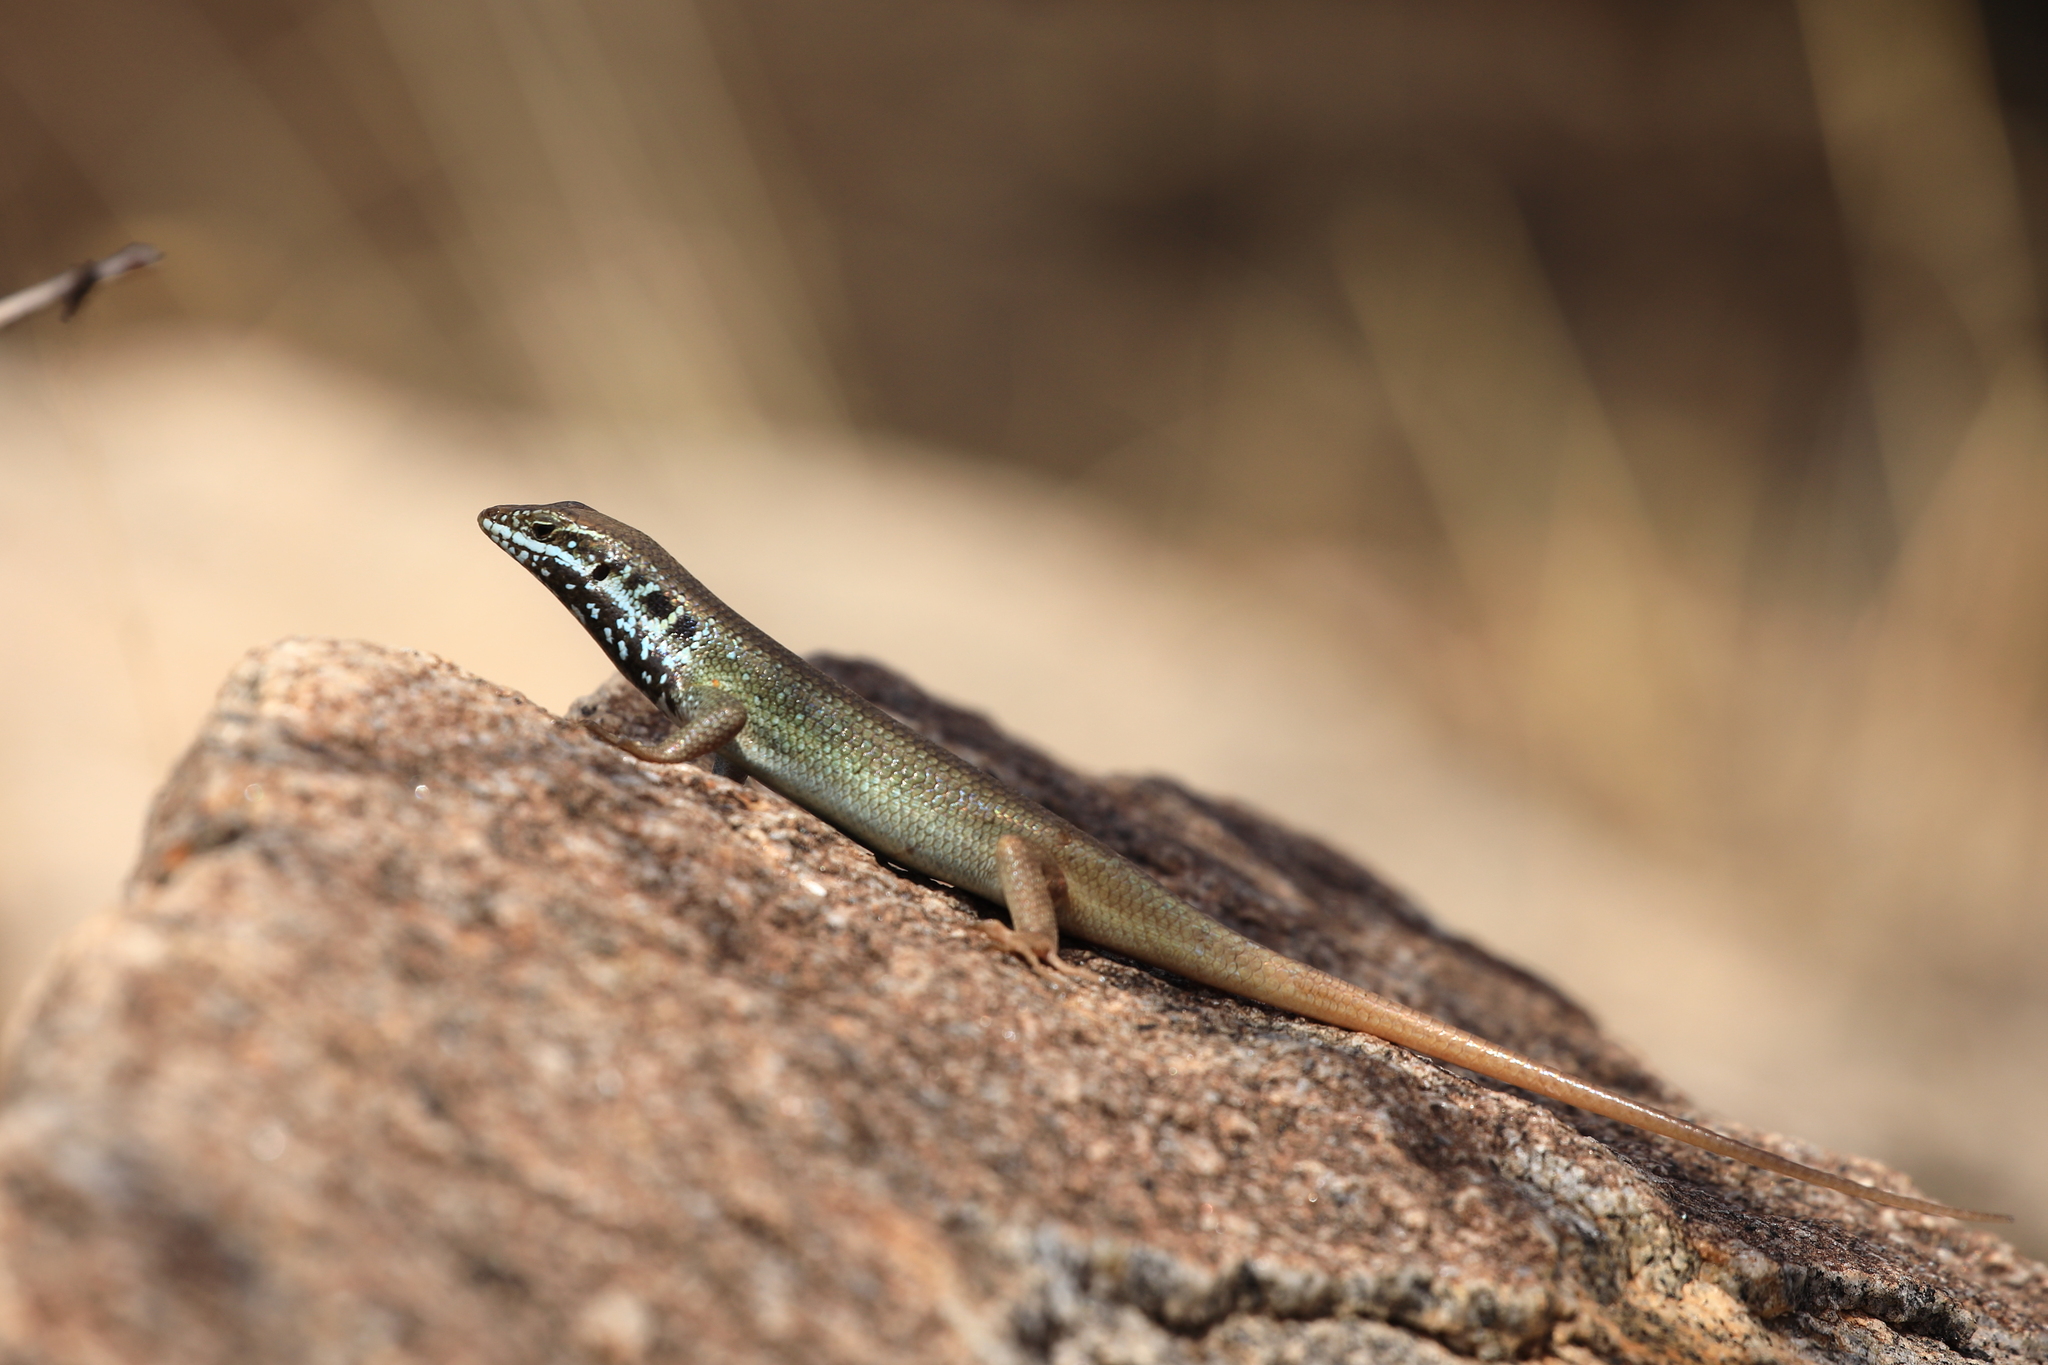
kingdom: Animalia
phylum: Chordata
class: Squamata
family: Scincidae
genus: Trachylepis
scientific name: Trachylepis quinquetaeniata
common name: African five-lined skink
